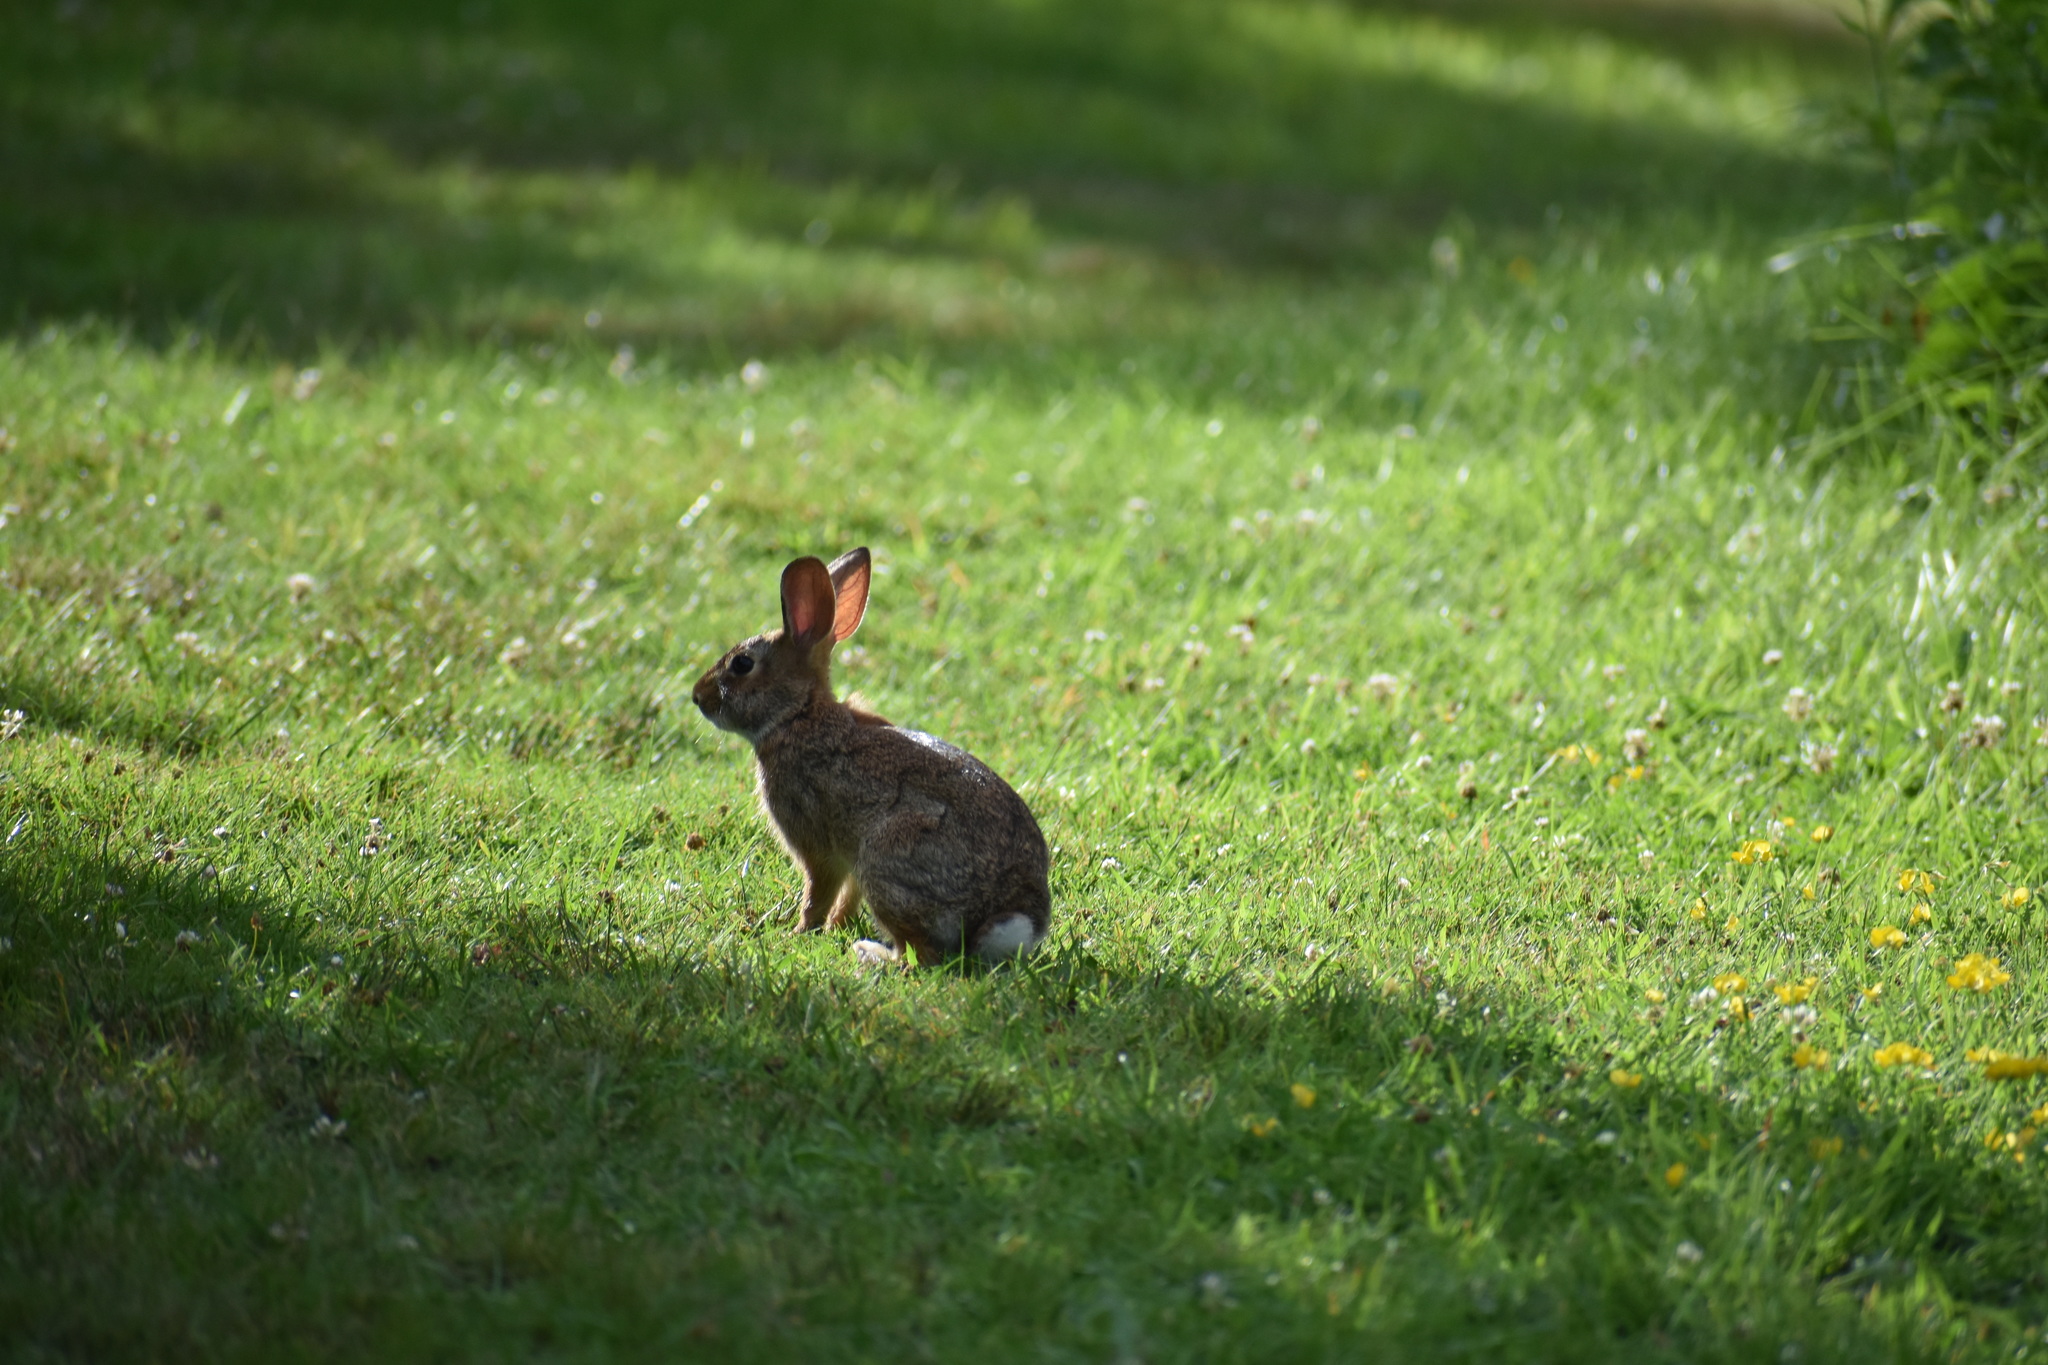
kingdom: Animalia
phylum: Chordata
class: Mammalia
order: Lagomorpha
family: Leporidae
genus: Sylvilagus
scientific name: Sylvilagus floridanus
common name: Eastern cottontail
